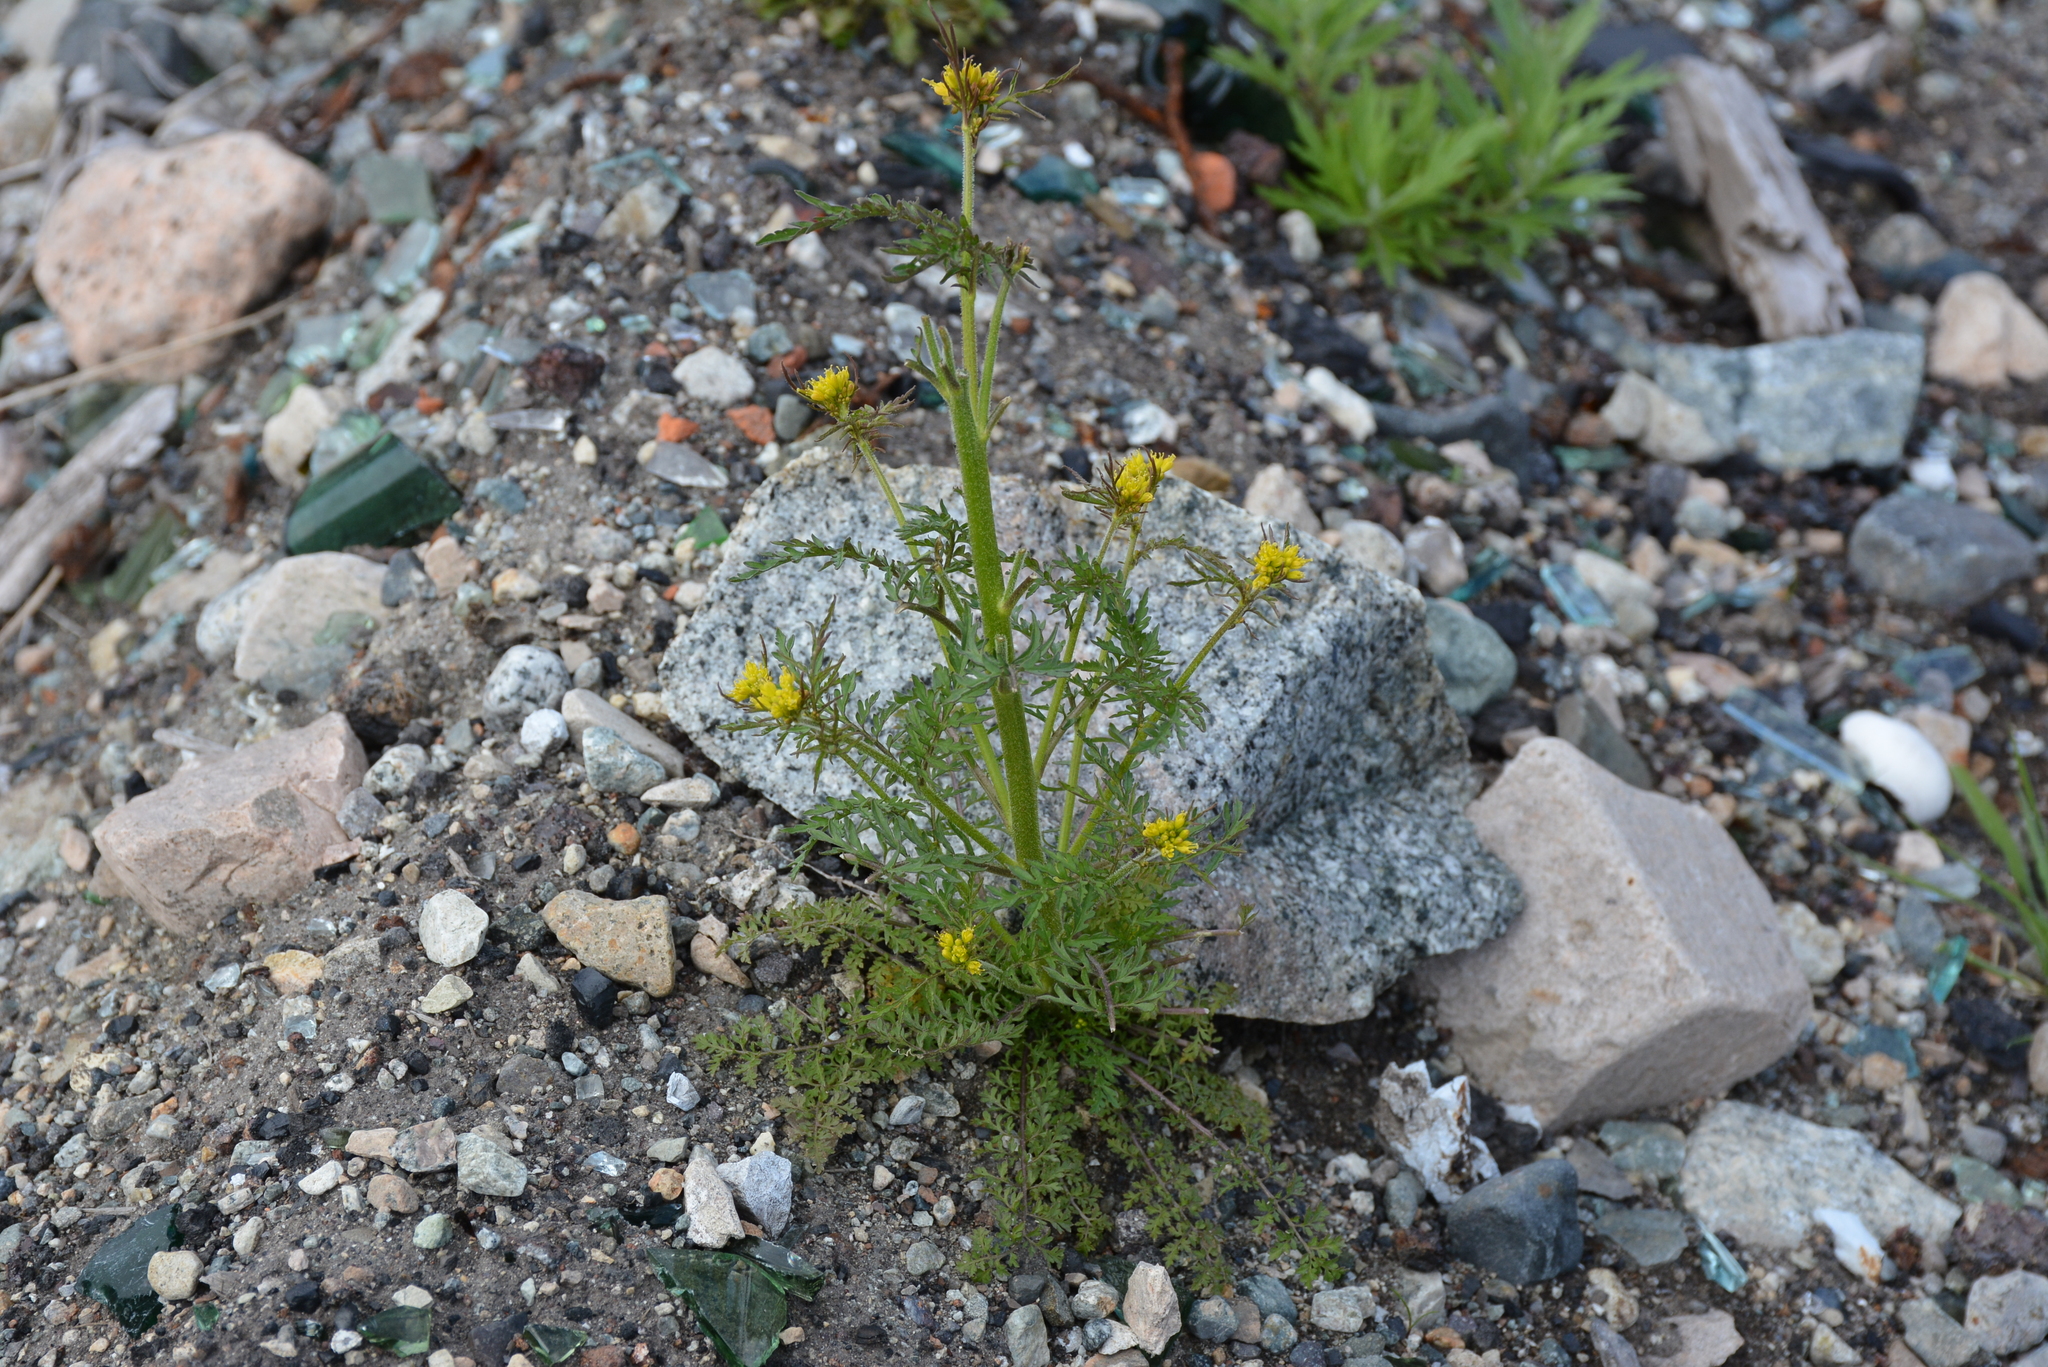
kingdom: Plantae
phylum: Tracheophyta
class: Magnoliopsida
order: Brassicales
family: Brassicaceae
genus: Descurainia
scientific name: Descurainia sophioides
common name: Northern tansy mustard
